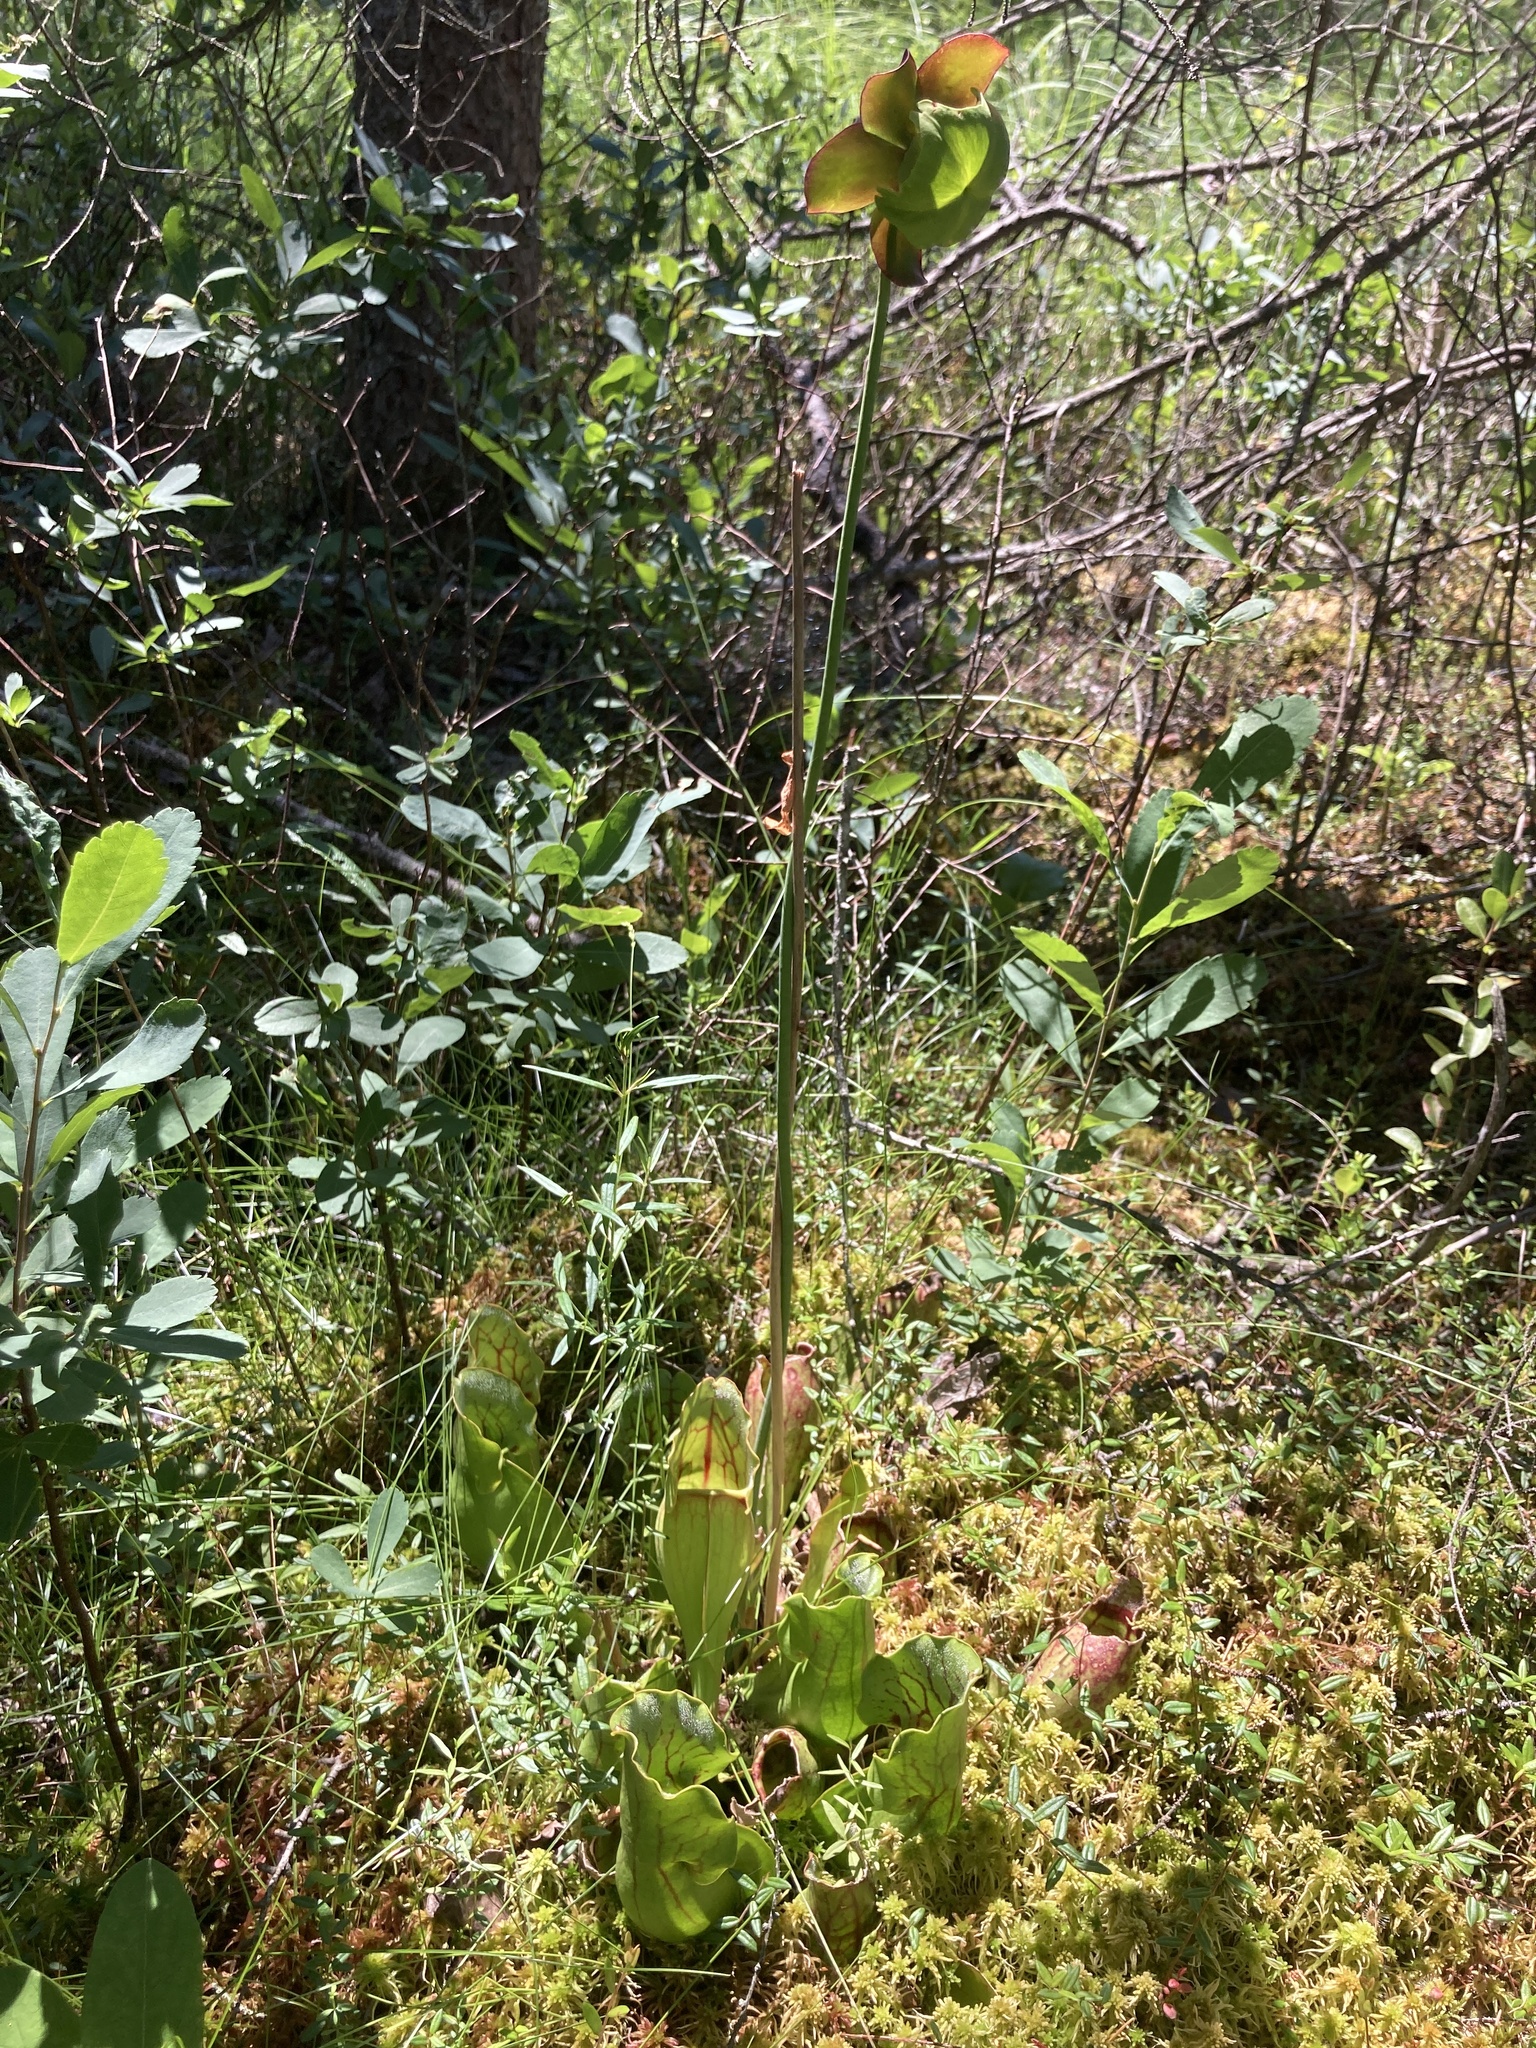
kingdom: Plantae
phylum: Tracheophyta
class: Magnoliopsida
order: Ericales
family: Sarraceniaceae
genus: Sarracenia
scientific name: Sarracenia purpurea
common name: Pitcherplant
